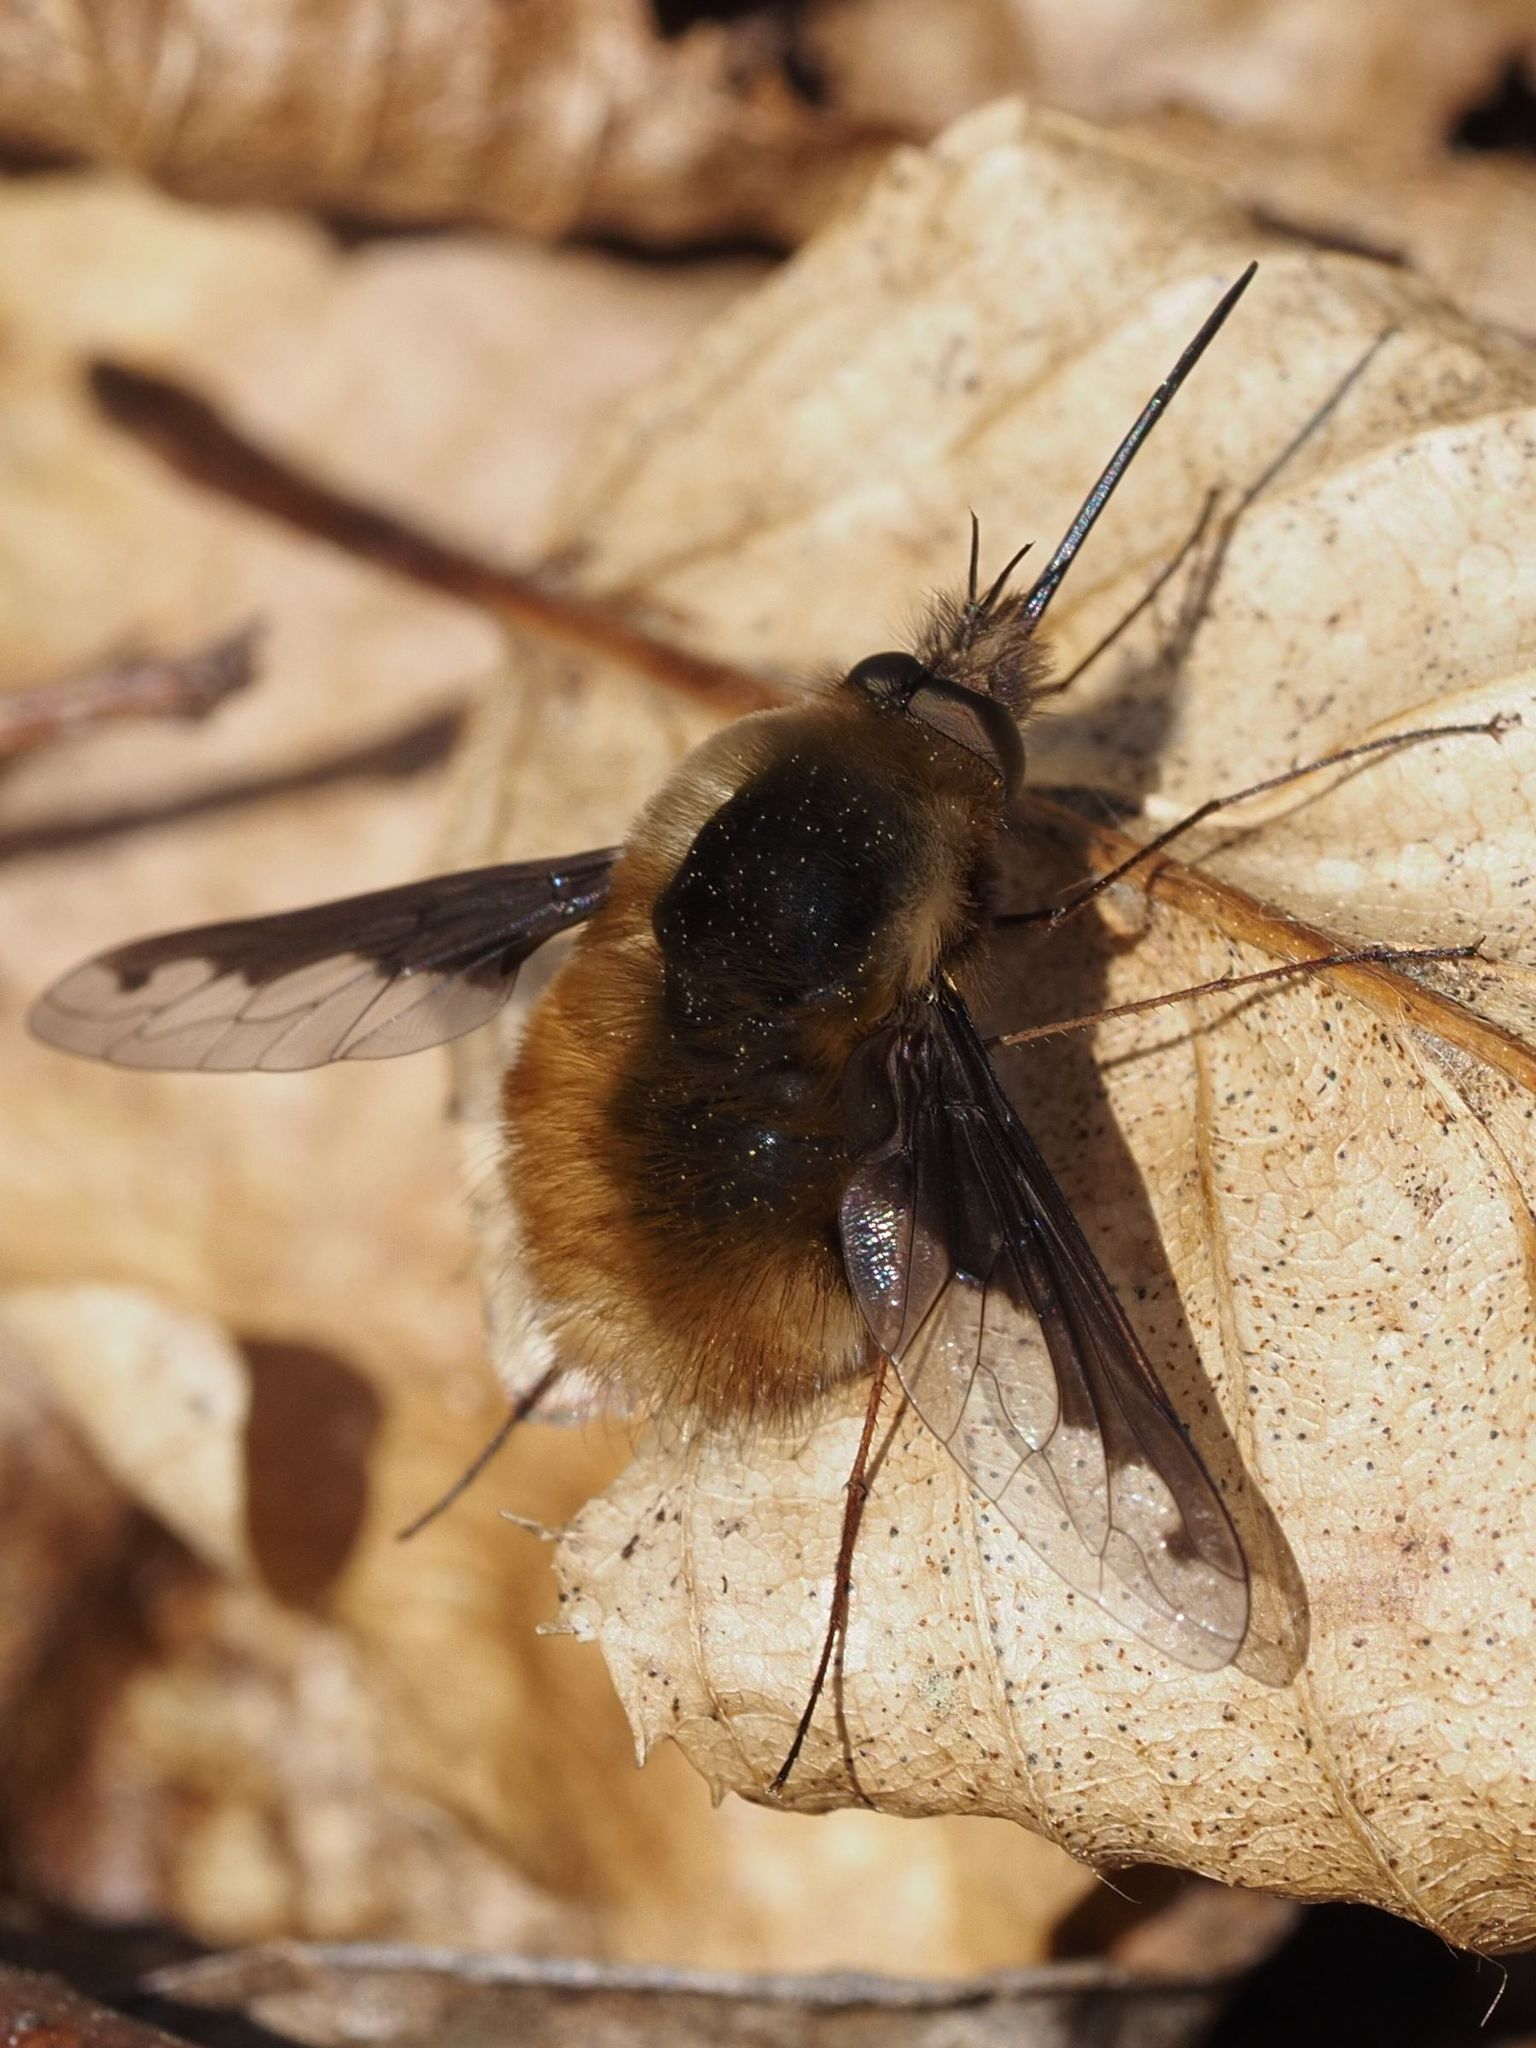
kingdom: Animalia
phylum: Arthropoda
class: Insecta
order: Diptera
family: Bombyliidae
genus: Bombylius
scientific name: Bombylius major
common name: Bee fly
